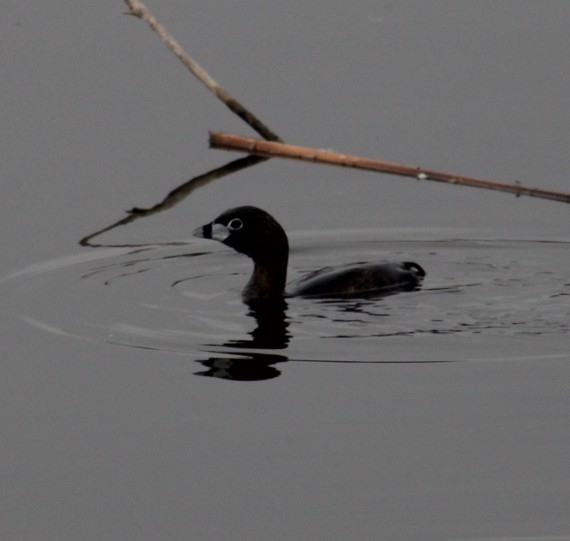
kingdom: Animalia
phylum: Chordata
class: Aves
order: Podicipediformes
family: Podicipedidae
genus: Podilymbus
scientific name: Podilymbus podiceps
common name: Pied-billed grebe
